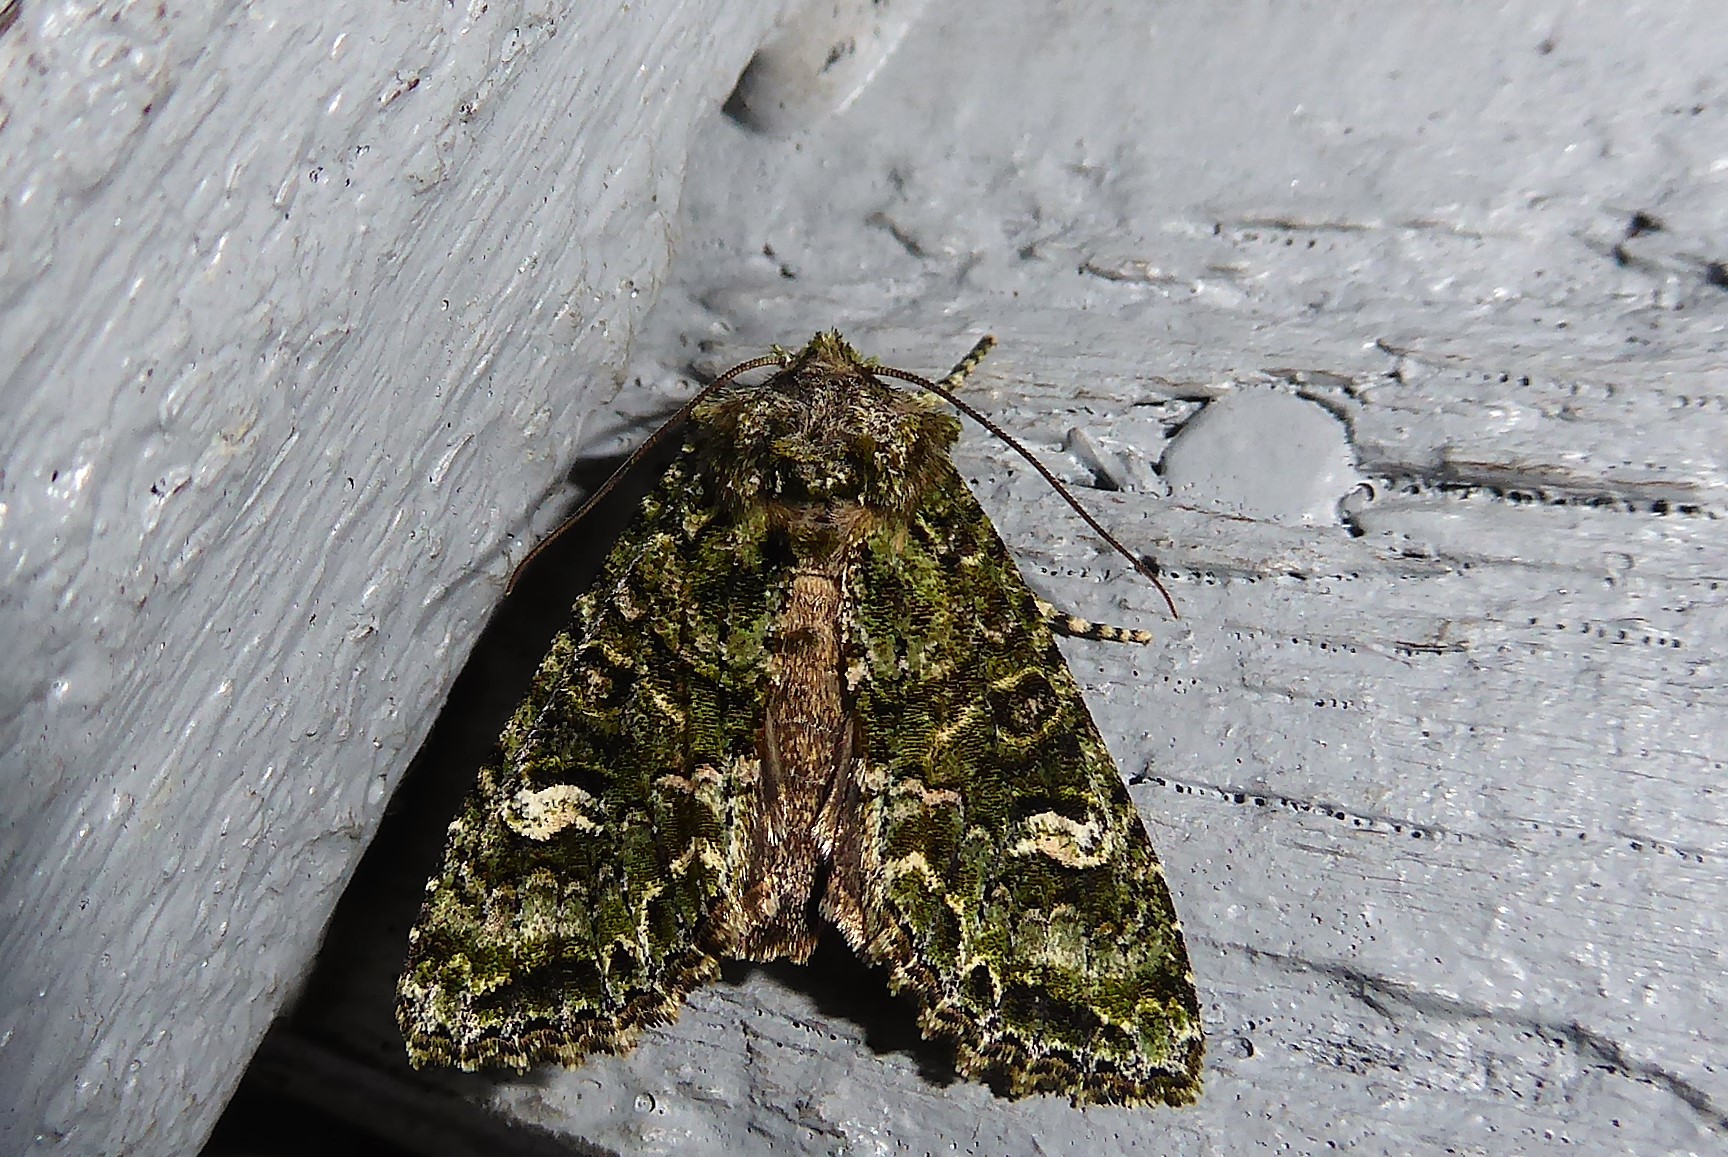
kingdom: Animalia
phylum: Arthropoda
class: Insecta
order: Lepidoptera
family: Noctuidae
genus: Ichneutica
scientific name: Ichneutica
